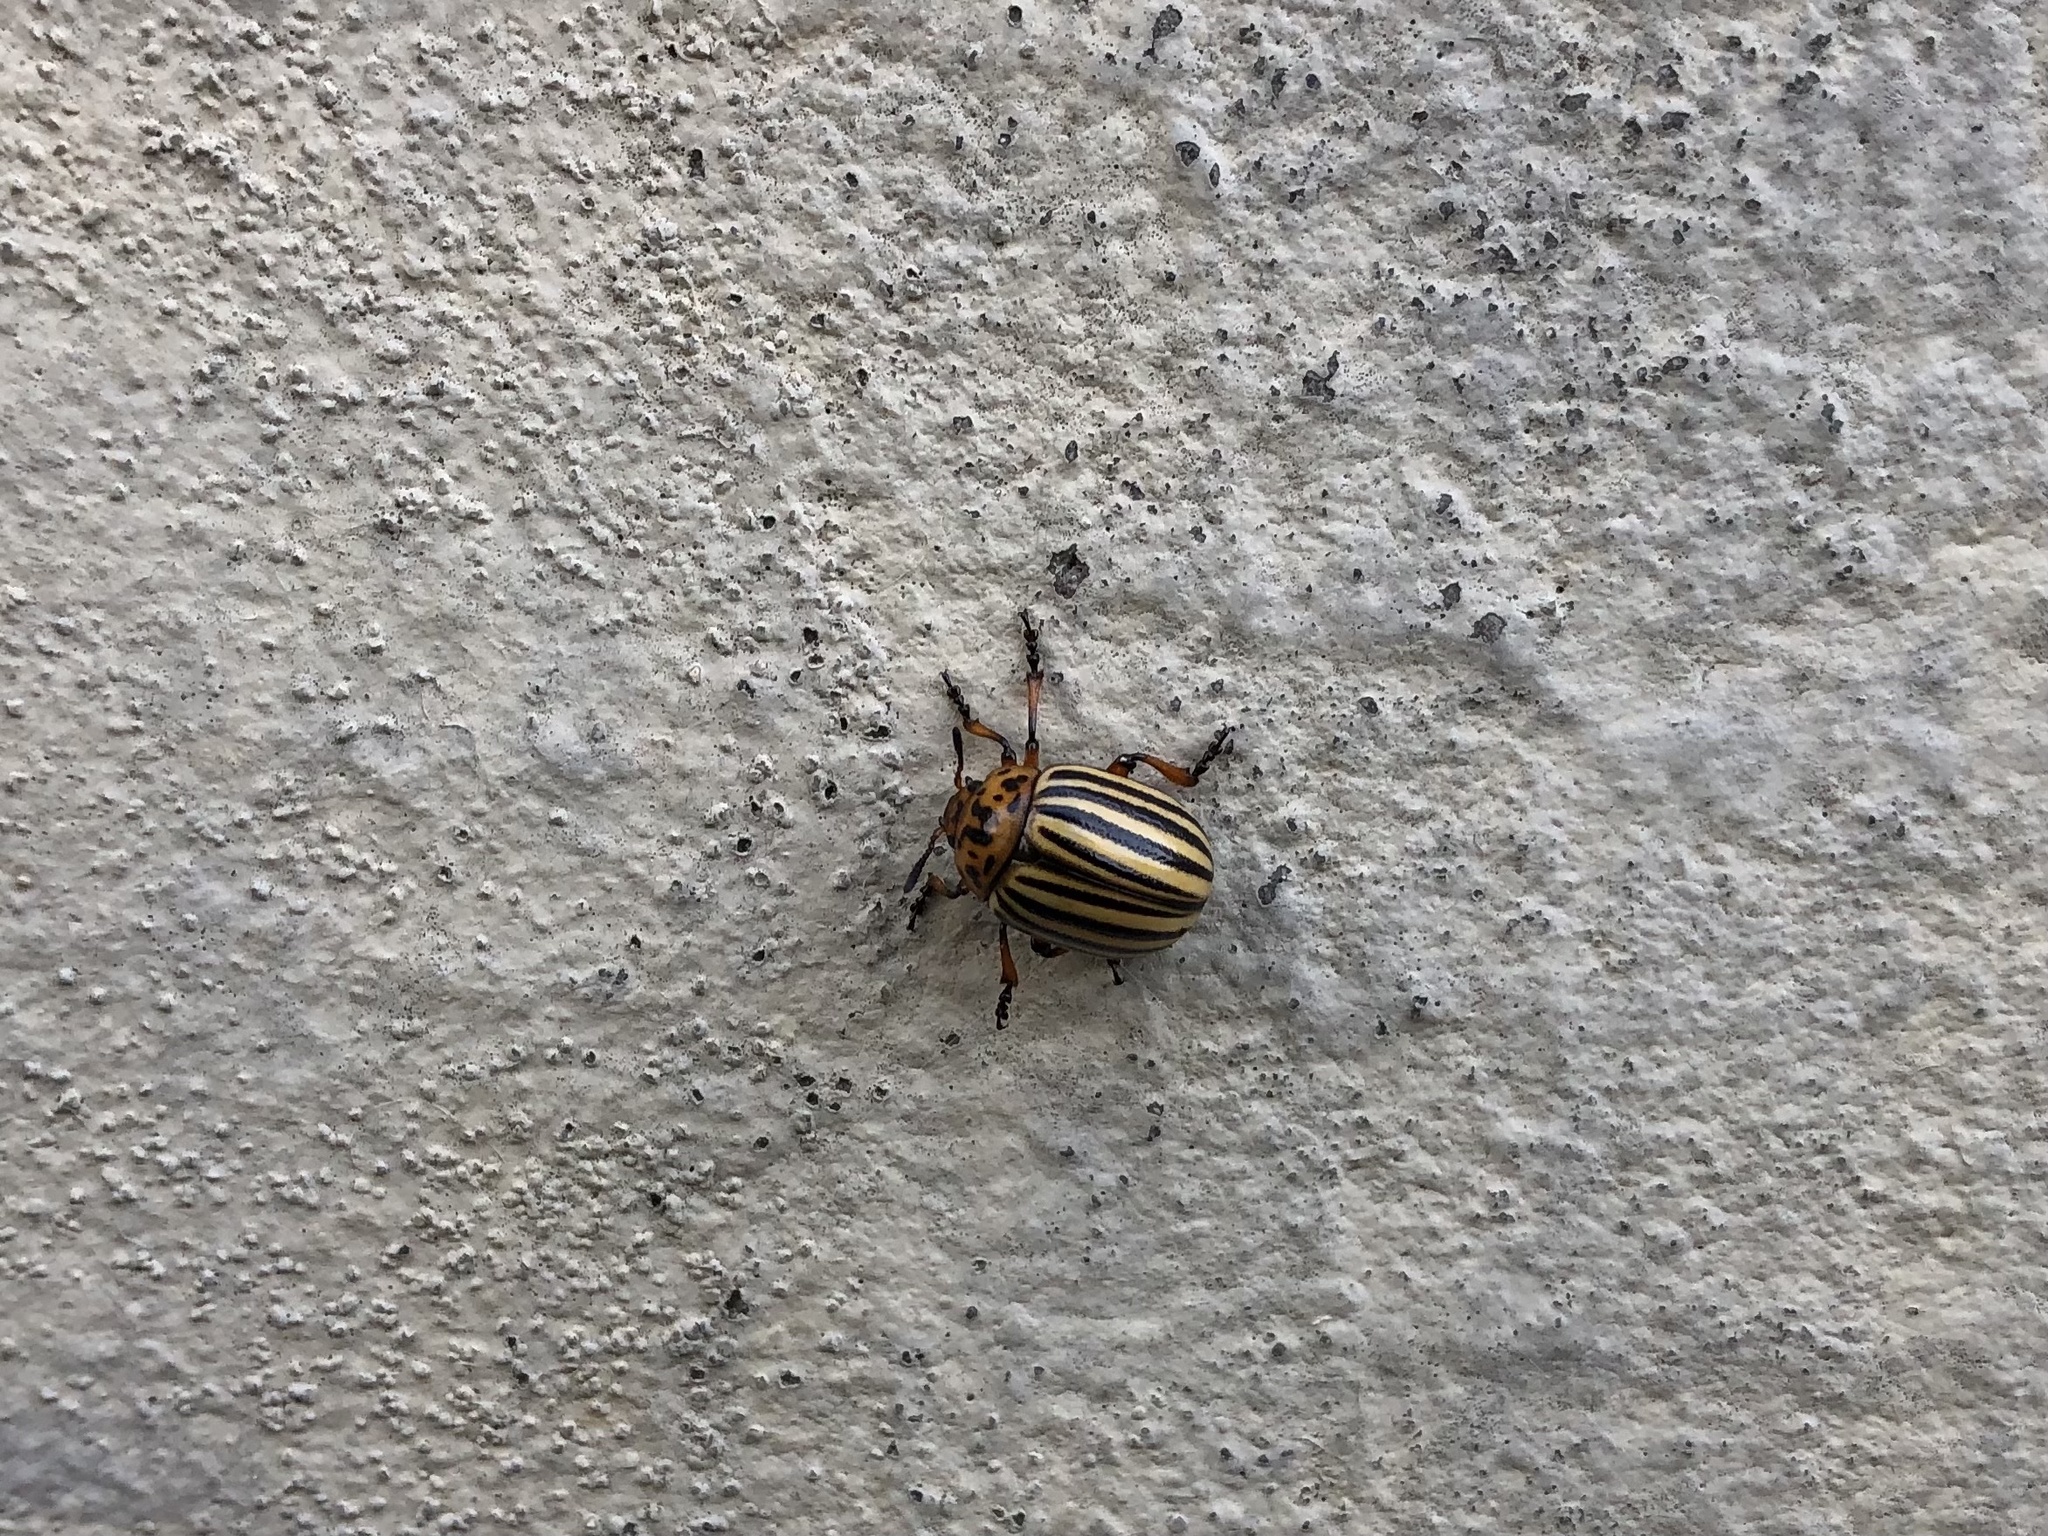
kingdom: Animalia
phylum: Arthropoda
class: Insecta
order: Coleoptera
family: Chrysomelidae
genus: Leptinotarsa
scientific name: Leptinotarsa decemlineata
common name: Colorado potato beetle
